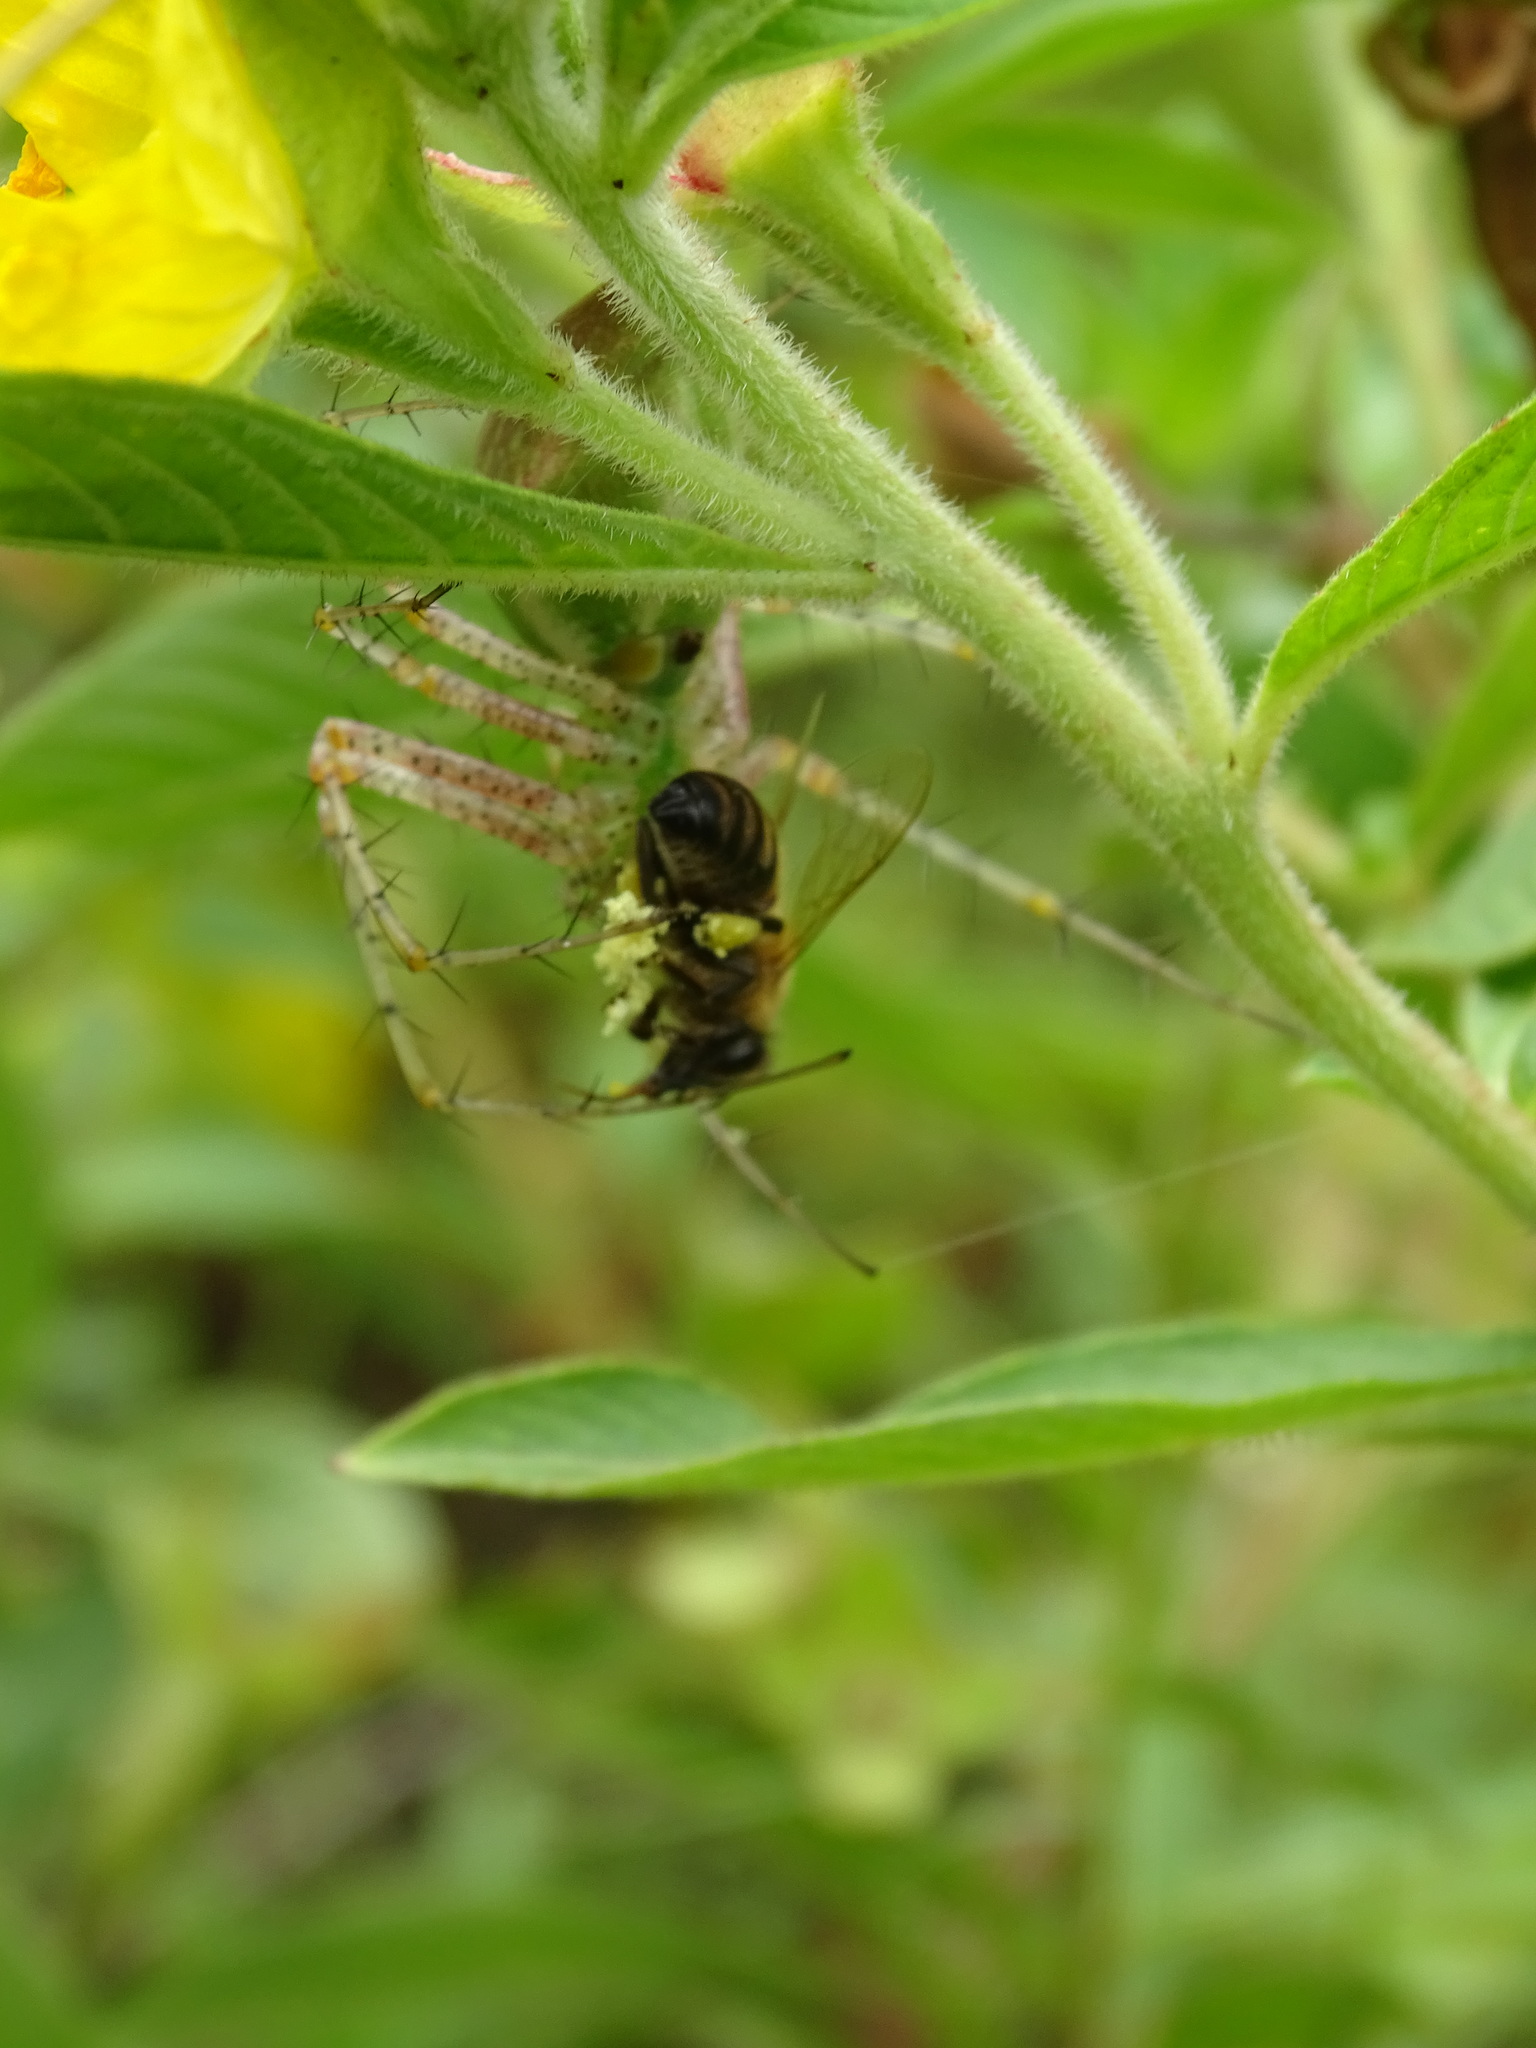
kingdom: Animalia
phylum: Arthropoda
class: Arachnida
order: Araneae
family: Oxyopidae
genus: Peucetia
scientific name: Peucetia viridans
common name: Lynx spiders
